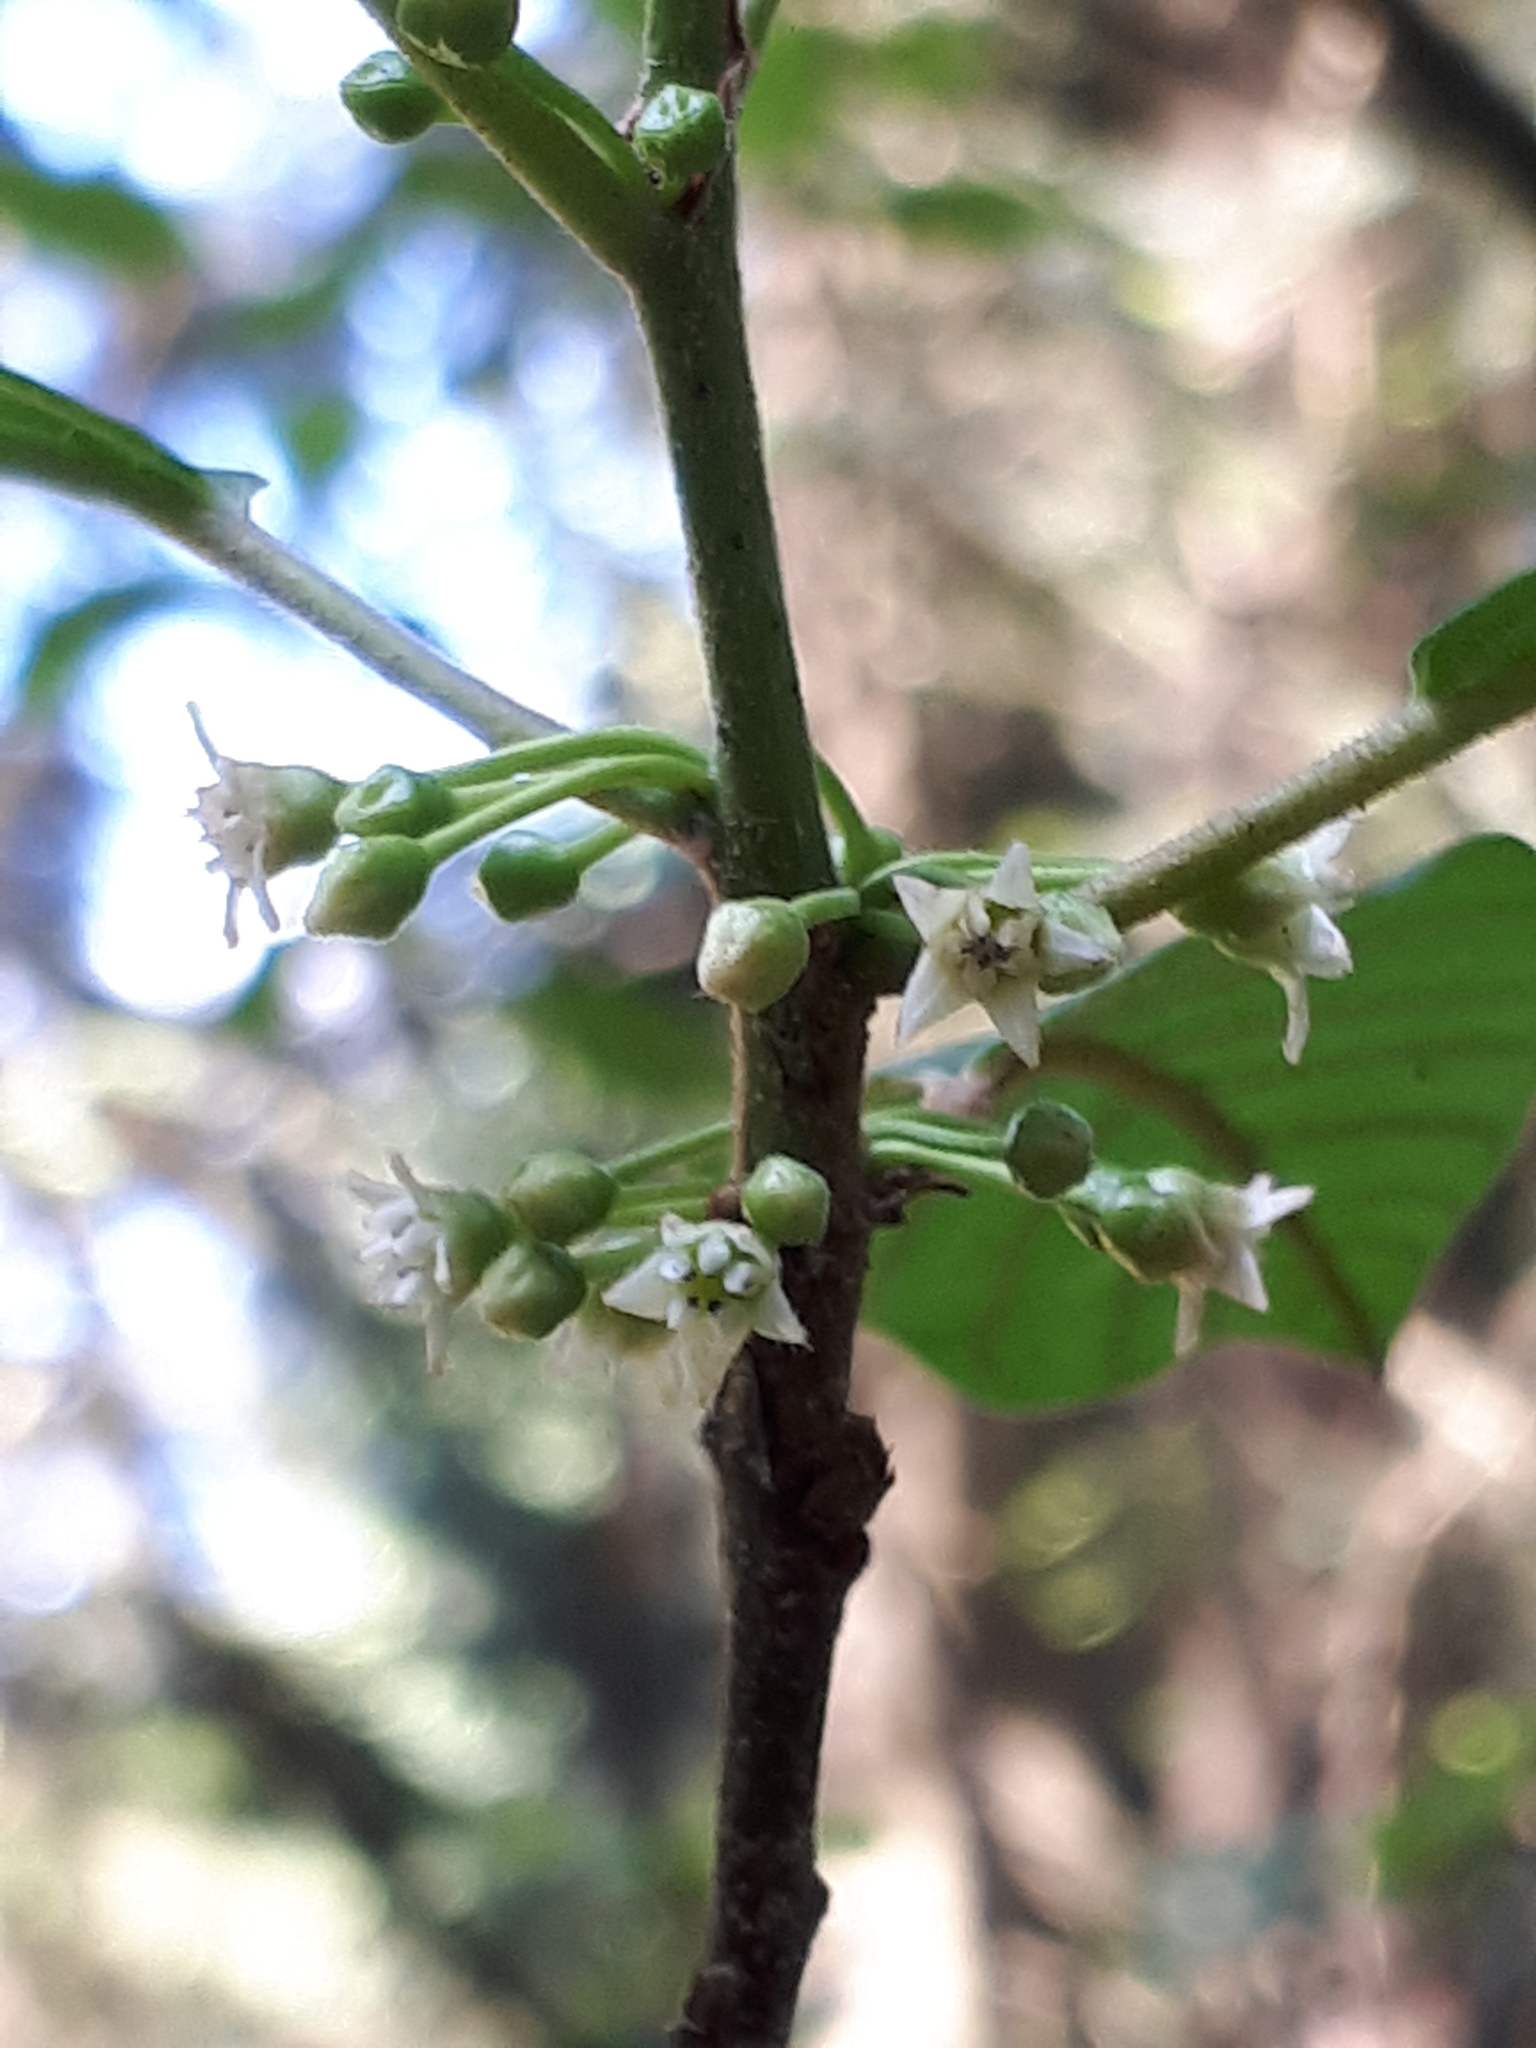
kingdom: Plantae
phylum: Tracheophyta
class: Magnoliopsida
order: Rosales
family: Rhamnaceae
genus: Frangula
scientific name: Frangula alnus
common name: Alder buckthorn
